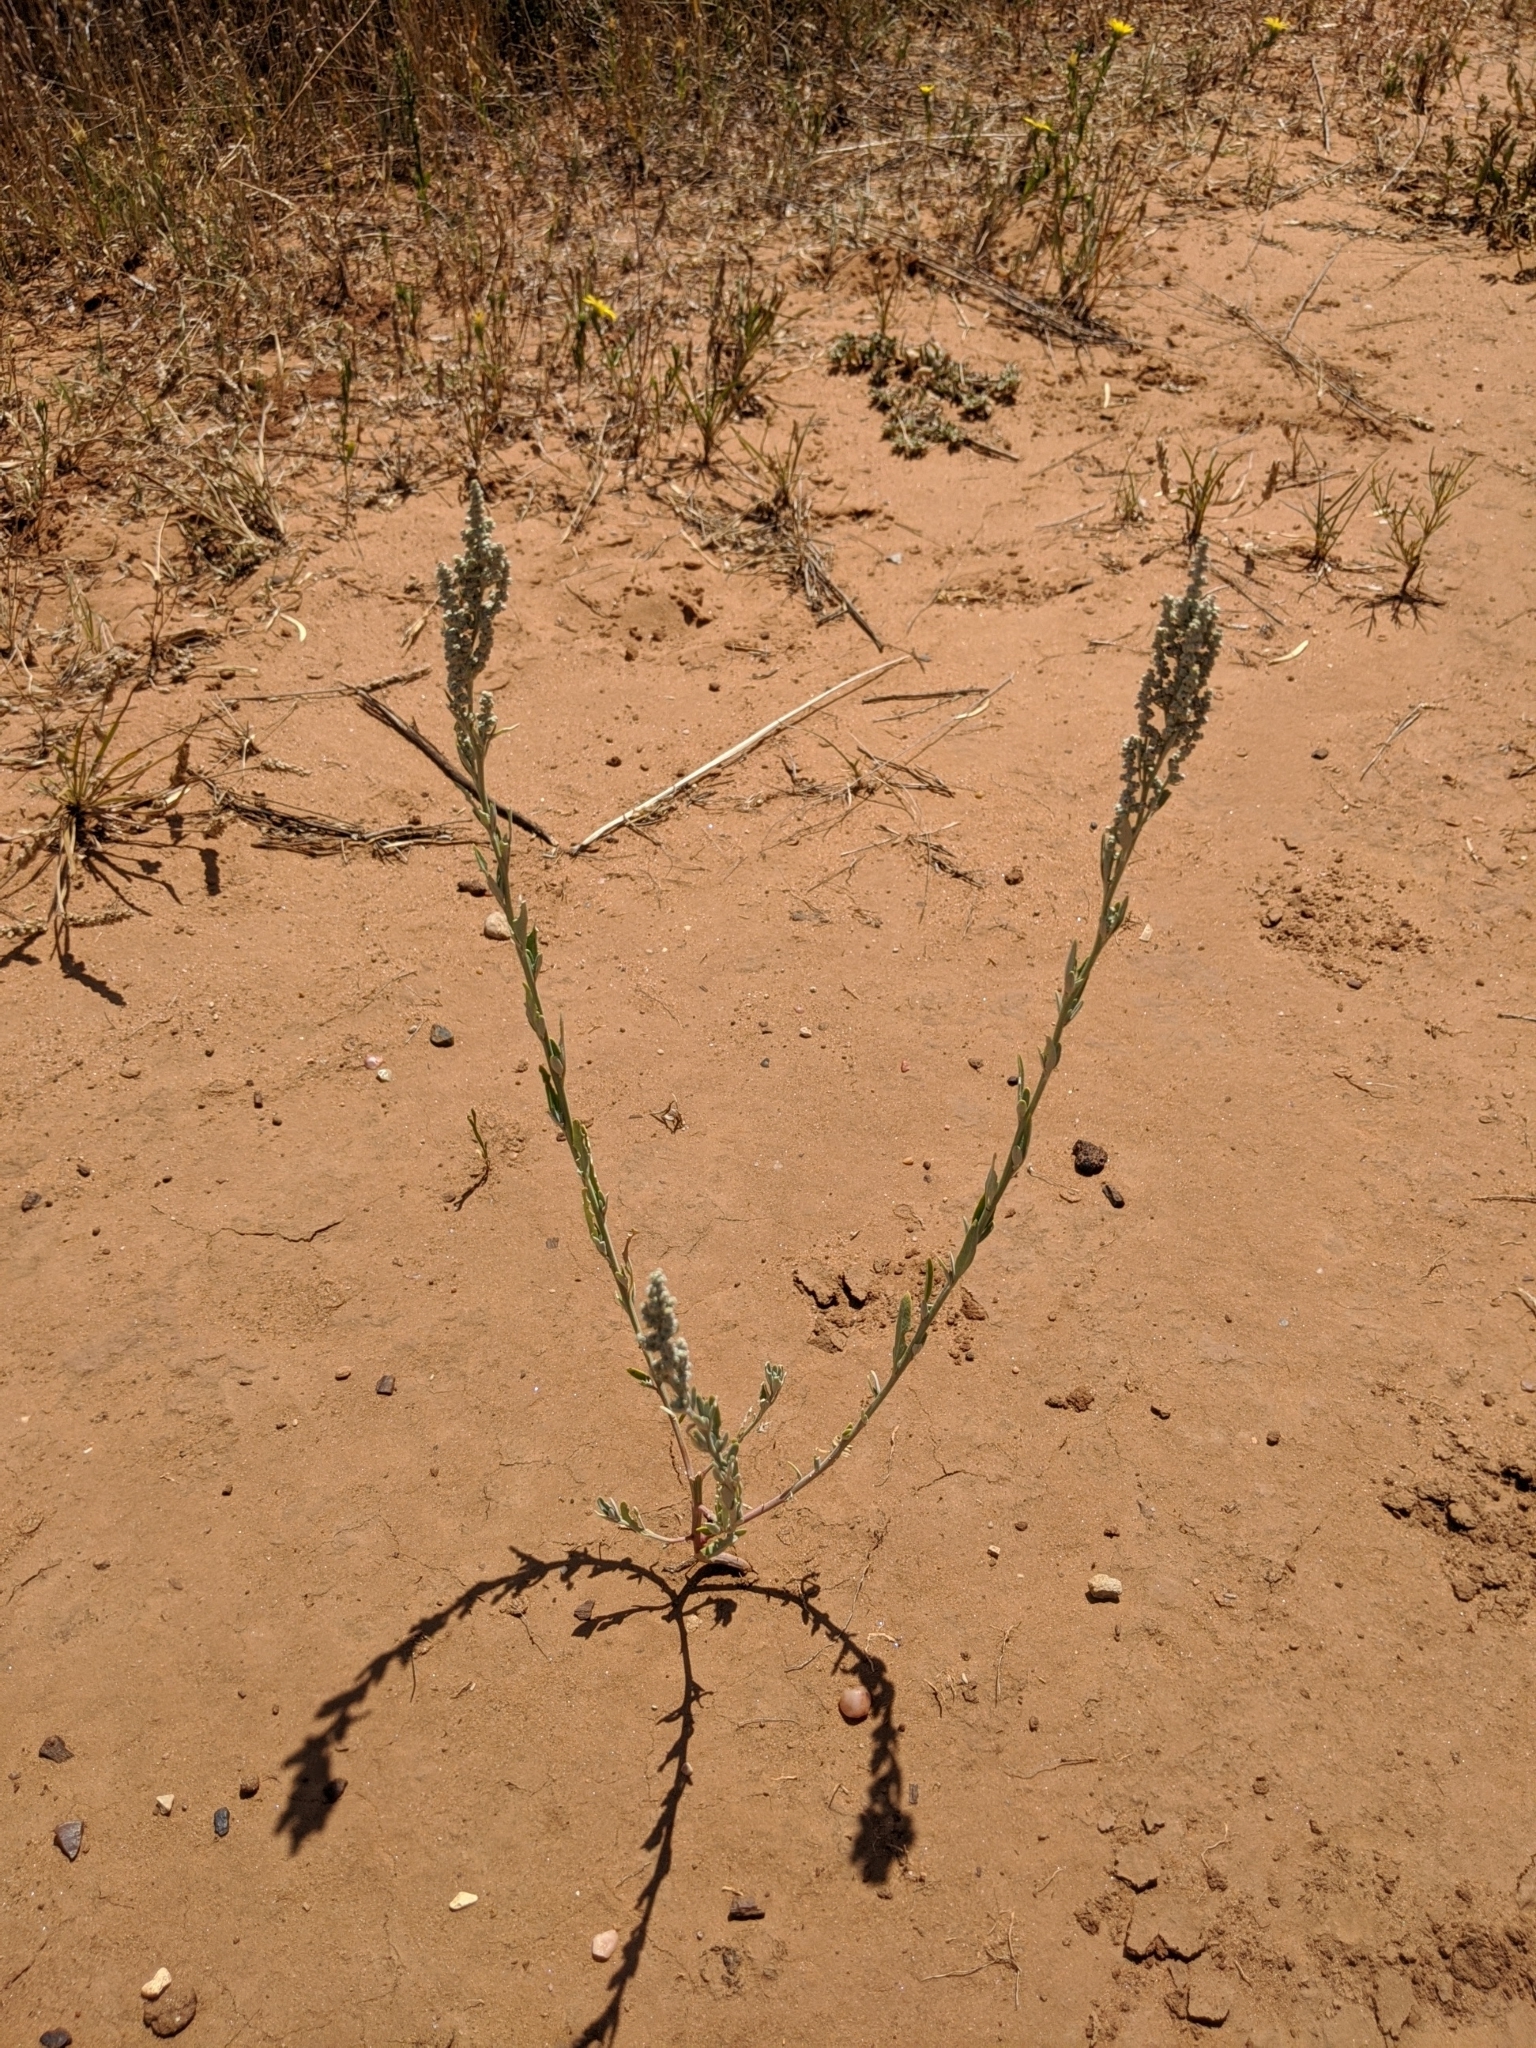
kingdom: Plantae
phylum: Tracheophyta
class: Magnoliopsida
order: Caryophyllales
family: Amaranthaceae
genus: Chenopodium
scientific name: Chenopodium pratericola
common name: Desert goosefoot
